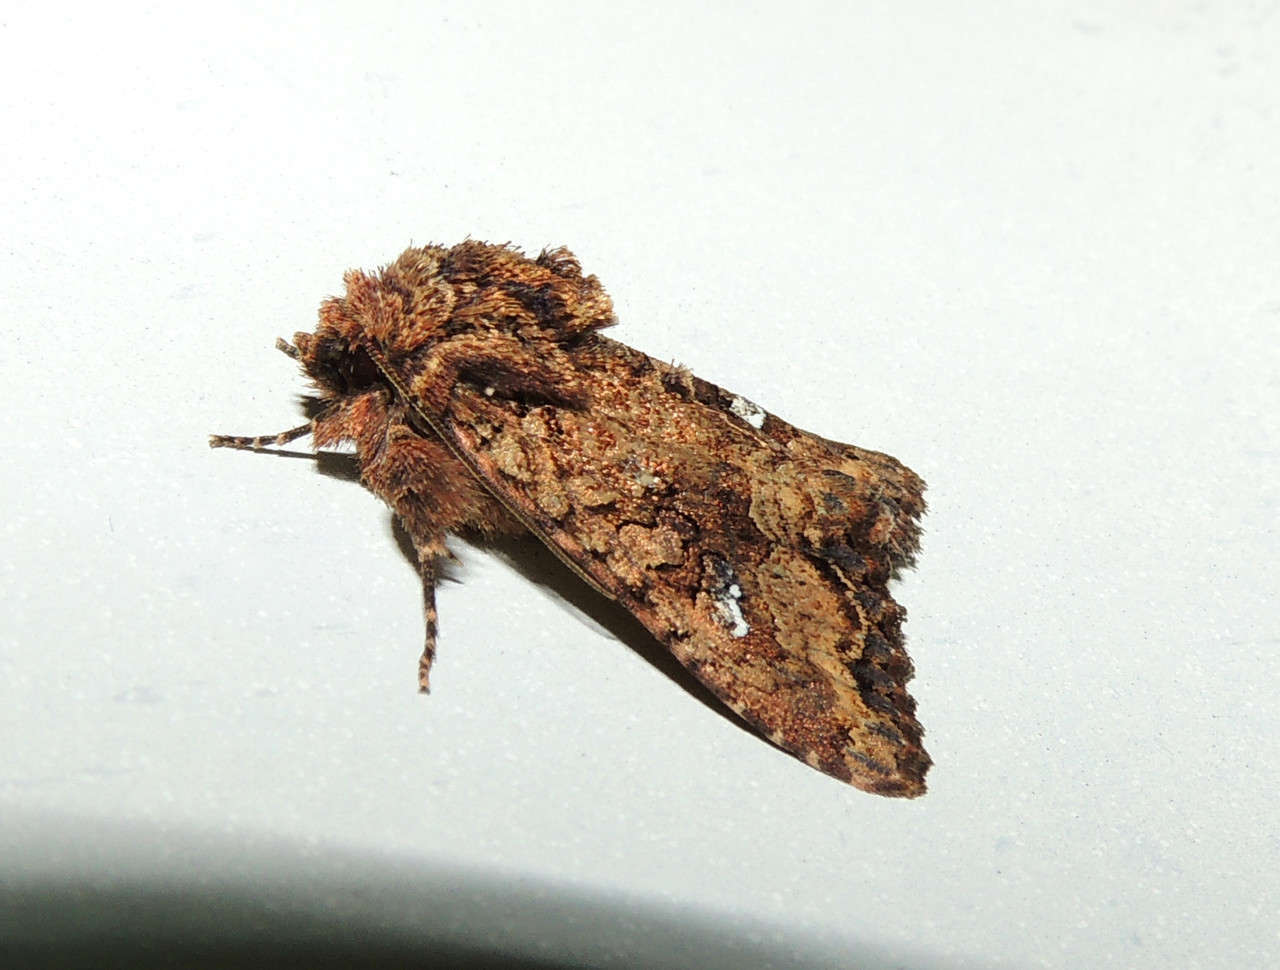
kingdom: Animalia
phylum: Arthropoda
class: Insecta
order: Lepidoptera
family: Noctuidae
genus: Neumichtis
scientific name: Neumichtis saliaris
